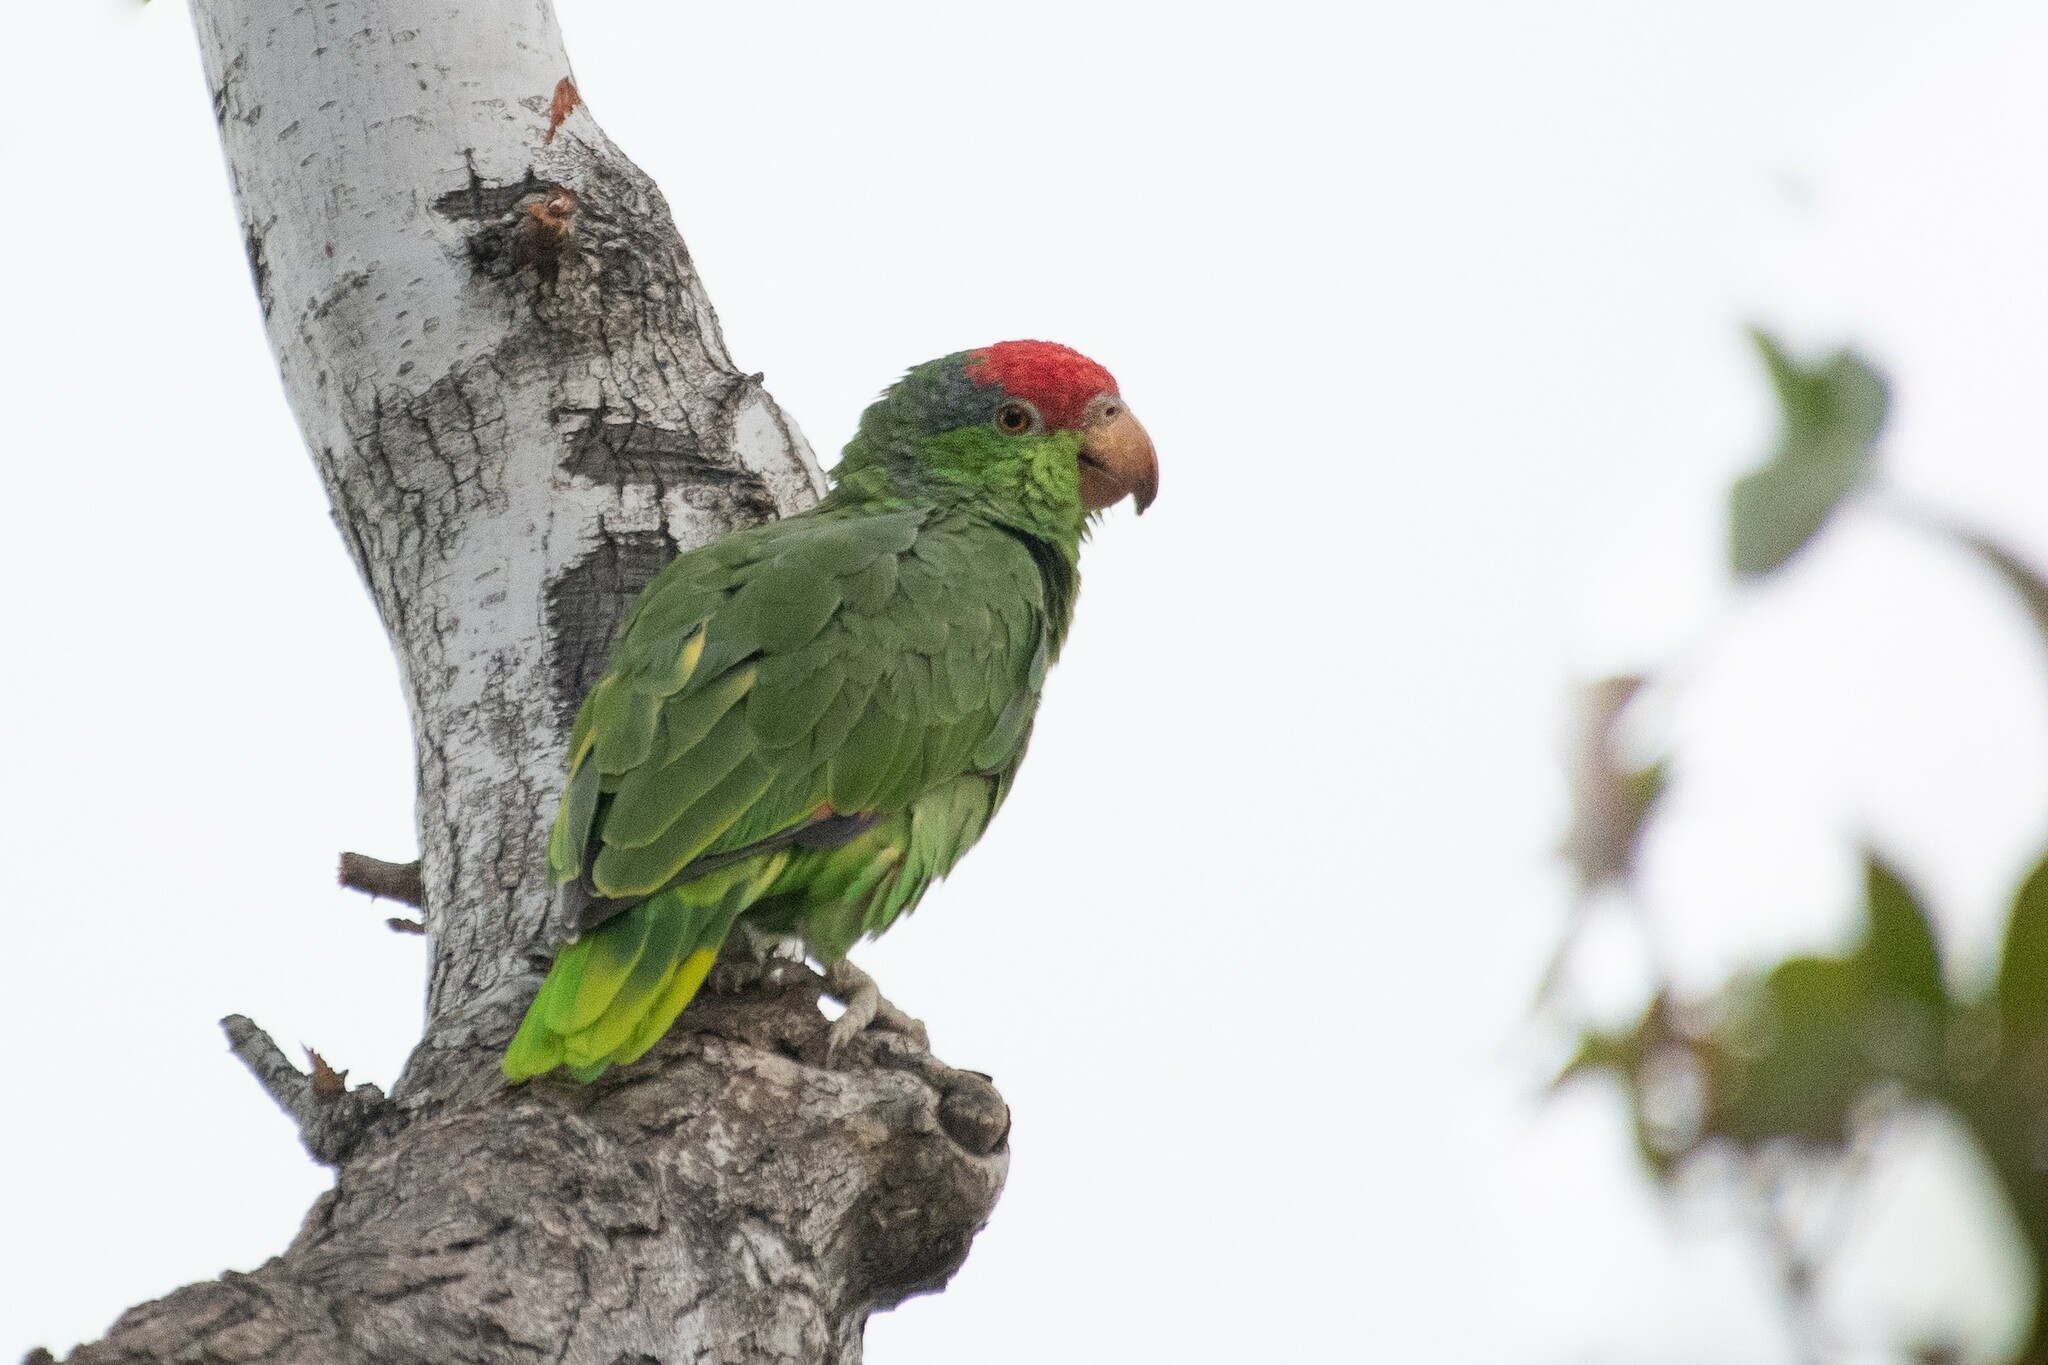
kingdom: Animalia
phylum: Chordata
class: Aves
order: Psittaciformes
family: Psittacidae
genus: Amazona
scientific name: Amazona viridigenalis
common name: Red-crowned amazon
